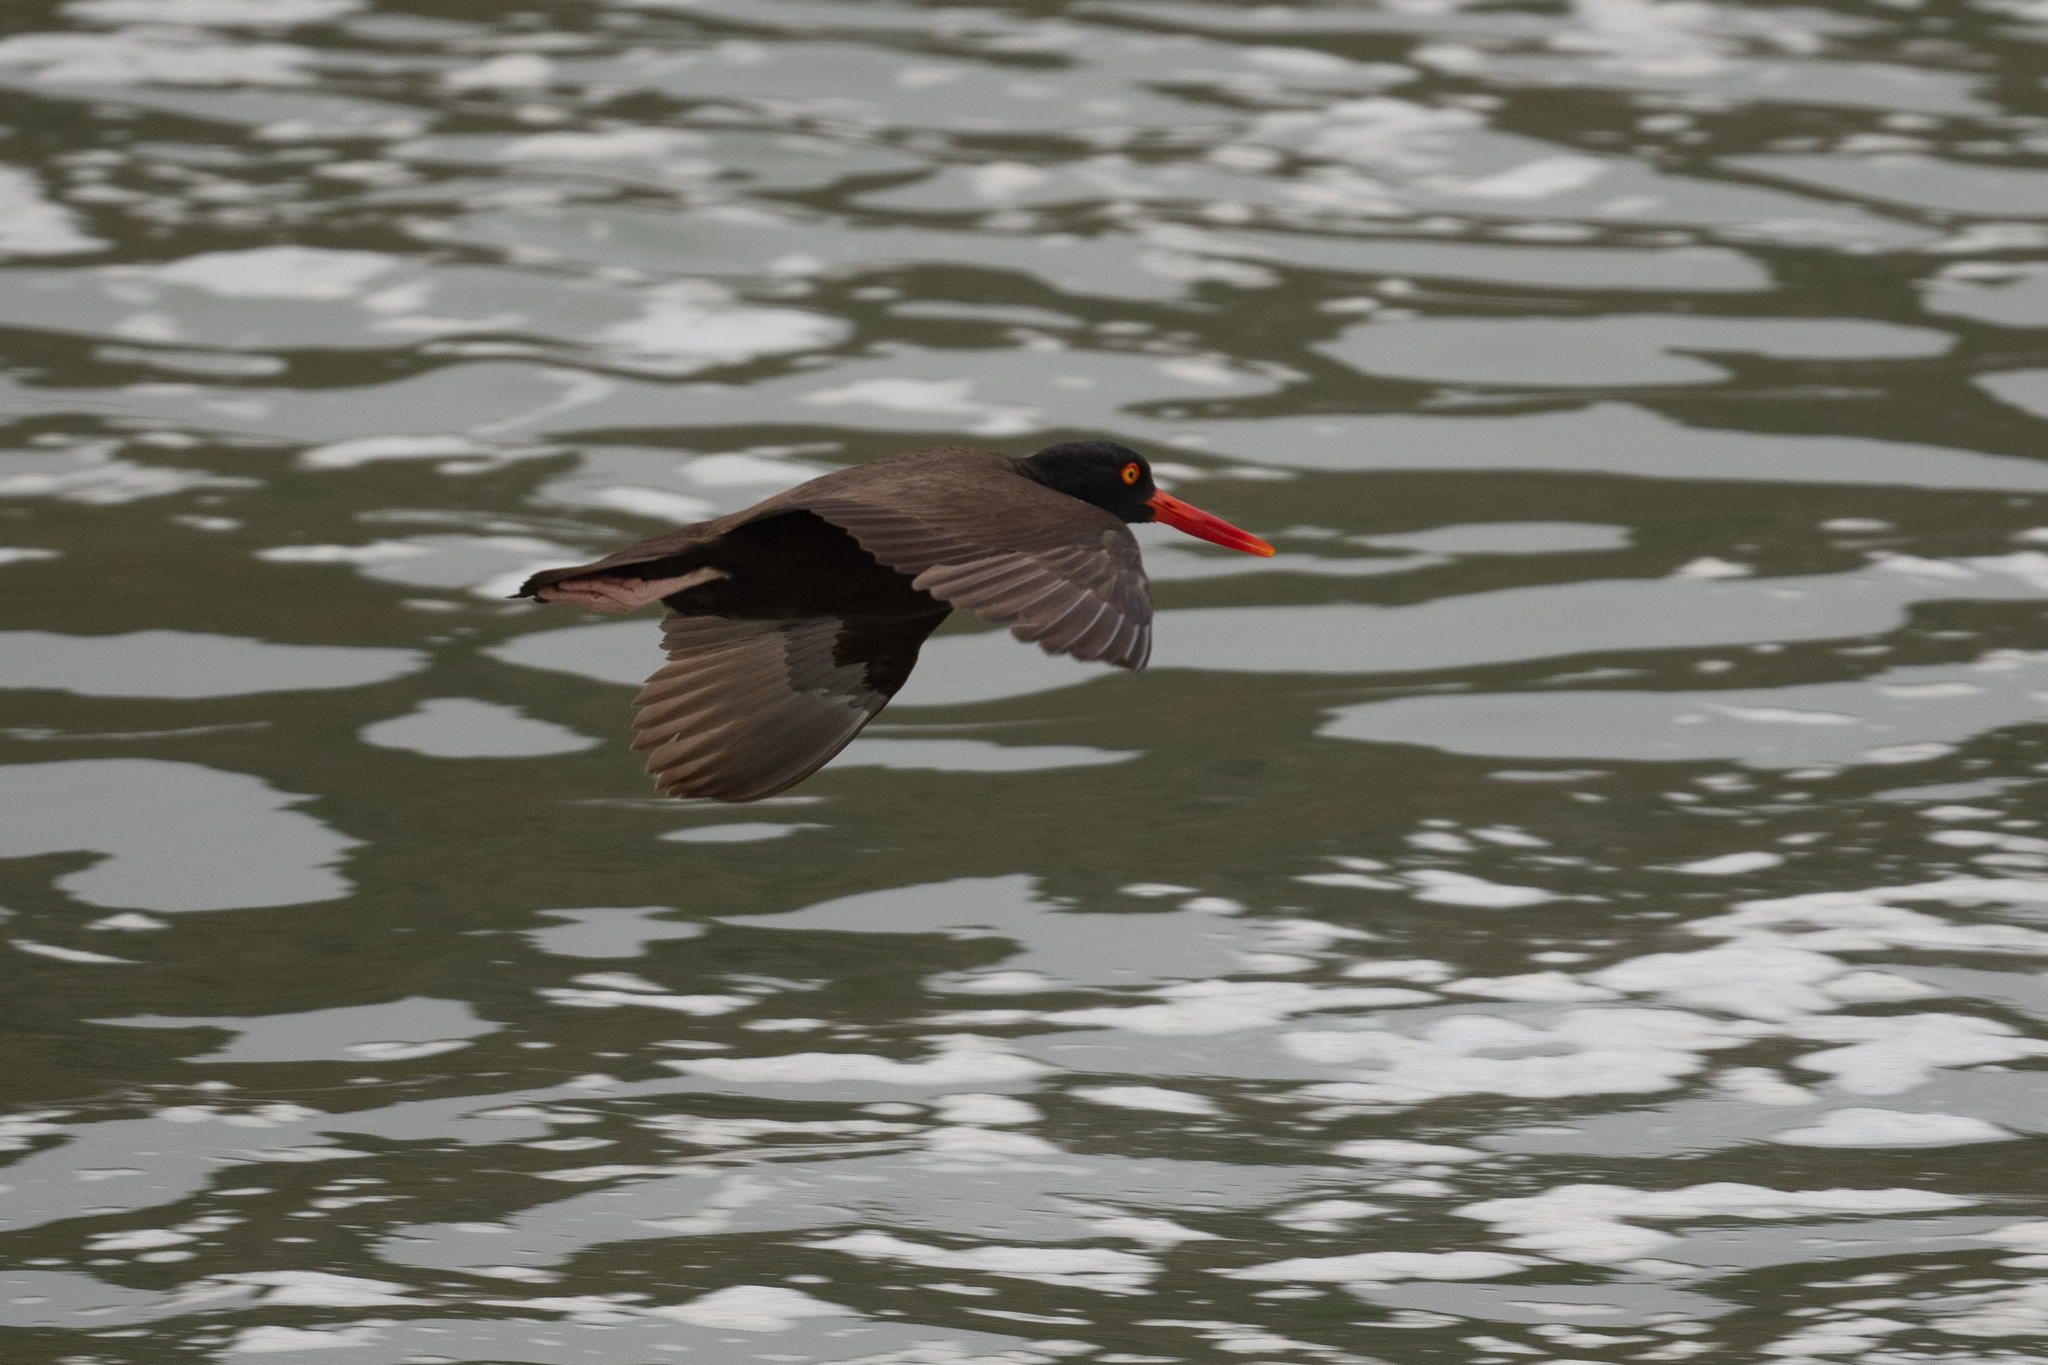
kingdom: Animalia
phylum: Chordata
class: Aves
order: Charadriiformes
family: Haematopodidae
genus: Haematopus
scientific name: Haematopus bachmani
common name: Black oystercatcher
